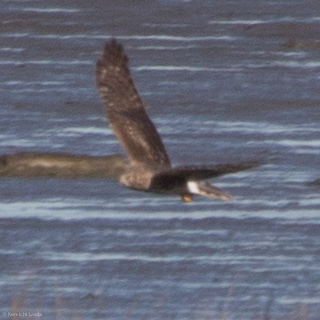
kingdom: Animalia
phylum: Chordata
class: Aves
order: Accipitriformes
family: Accipitridae
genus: Circus
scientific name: Circus cyaneus
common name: Hen harrier
